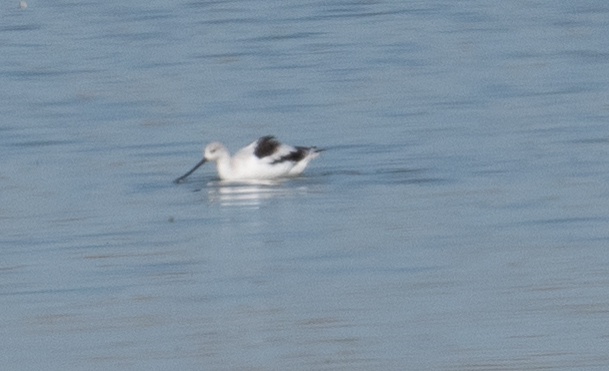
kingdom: Animalia
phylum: Chordata
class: Aves
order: Charadriiformes
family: Recurvirostridae
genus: Recurvirostra
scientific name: Recurvirostra americana
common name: American avocet
